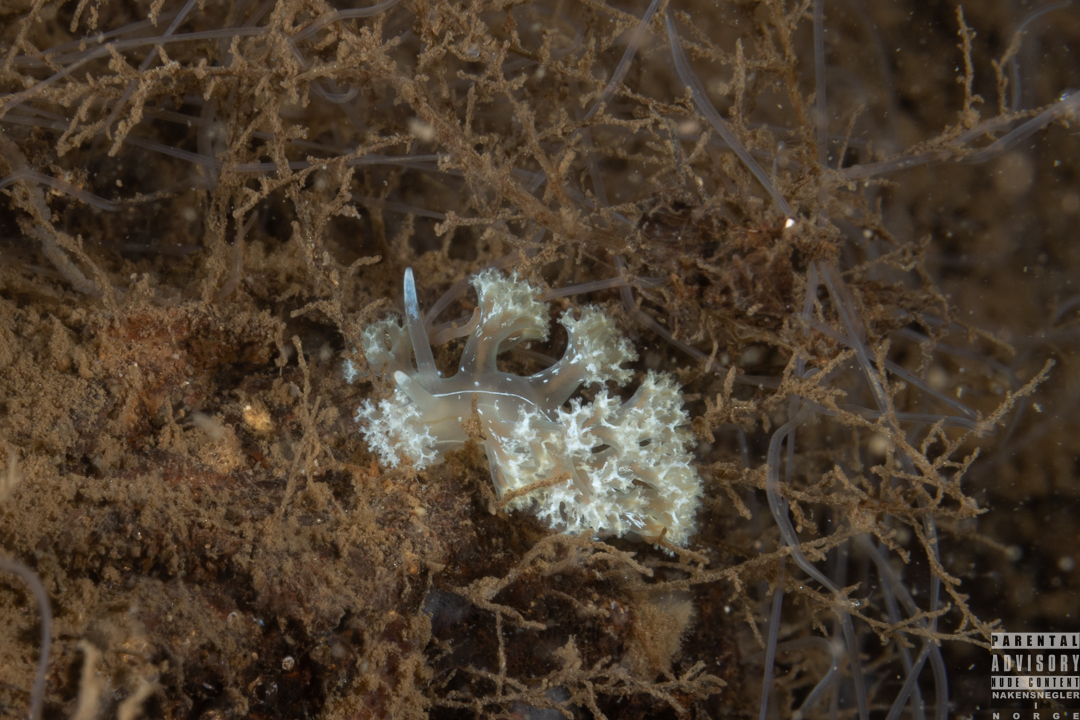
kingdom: Animalia
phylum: Mollusca
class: Gastropoda
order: Nudibranchia
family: Heroidae
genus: Hero
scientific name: Hero formosa
